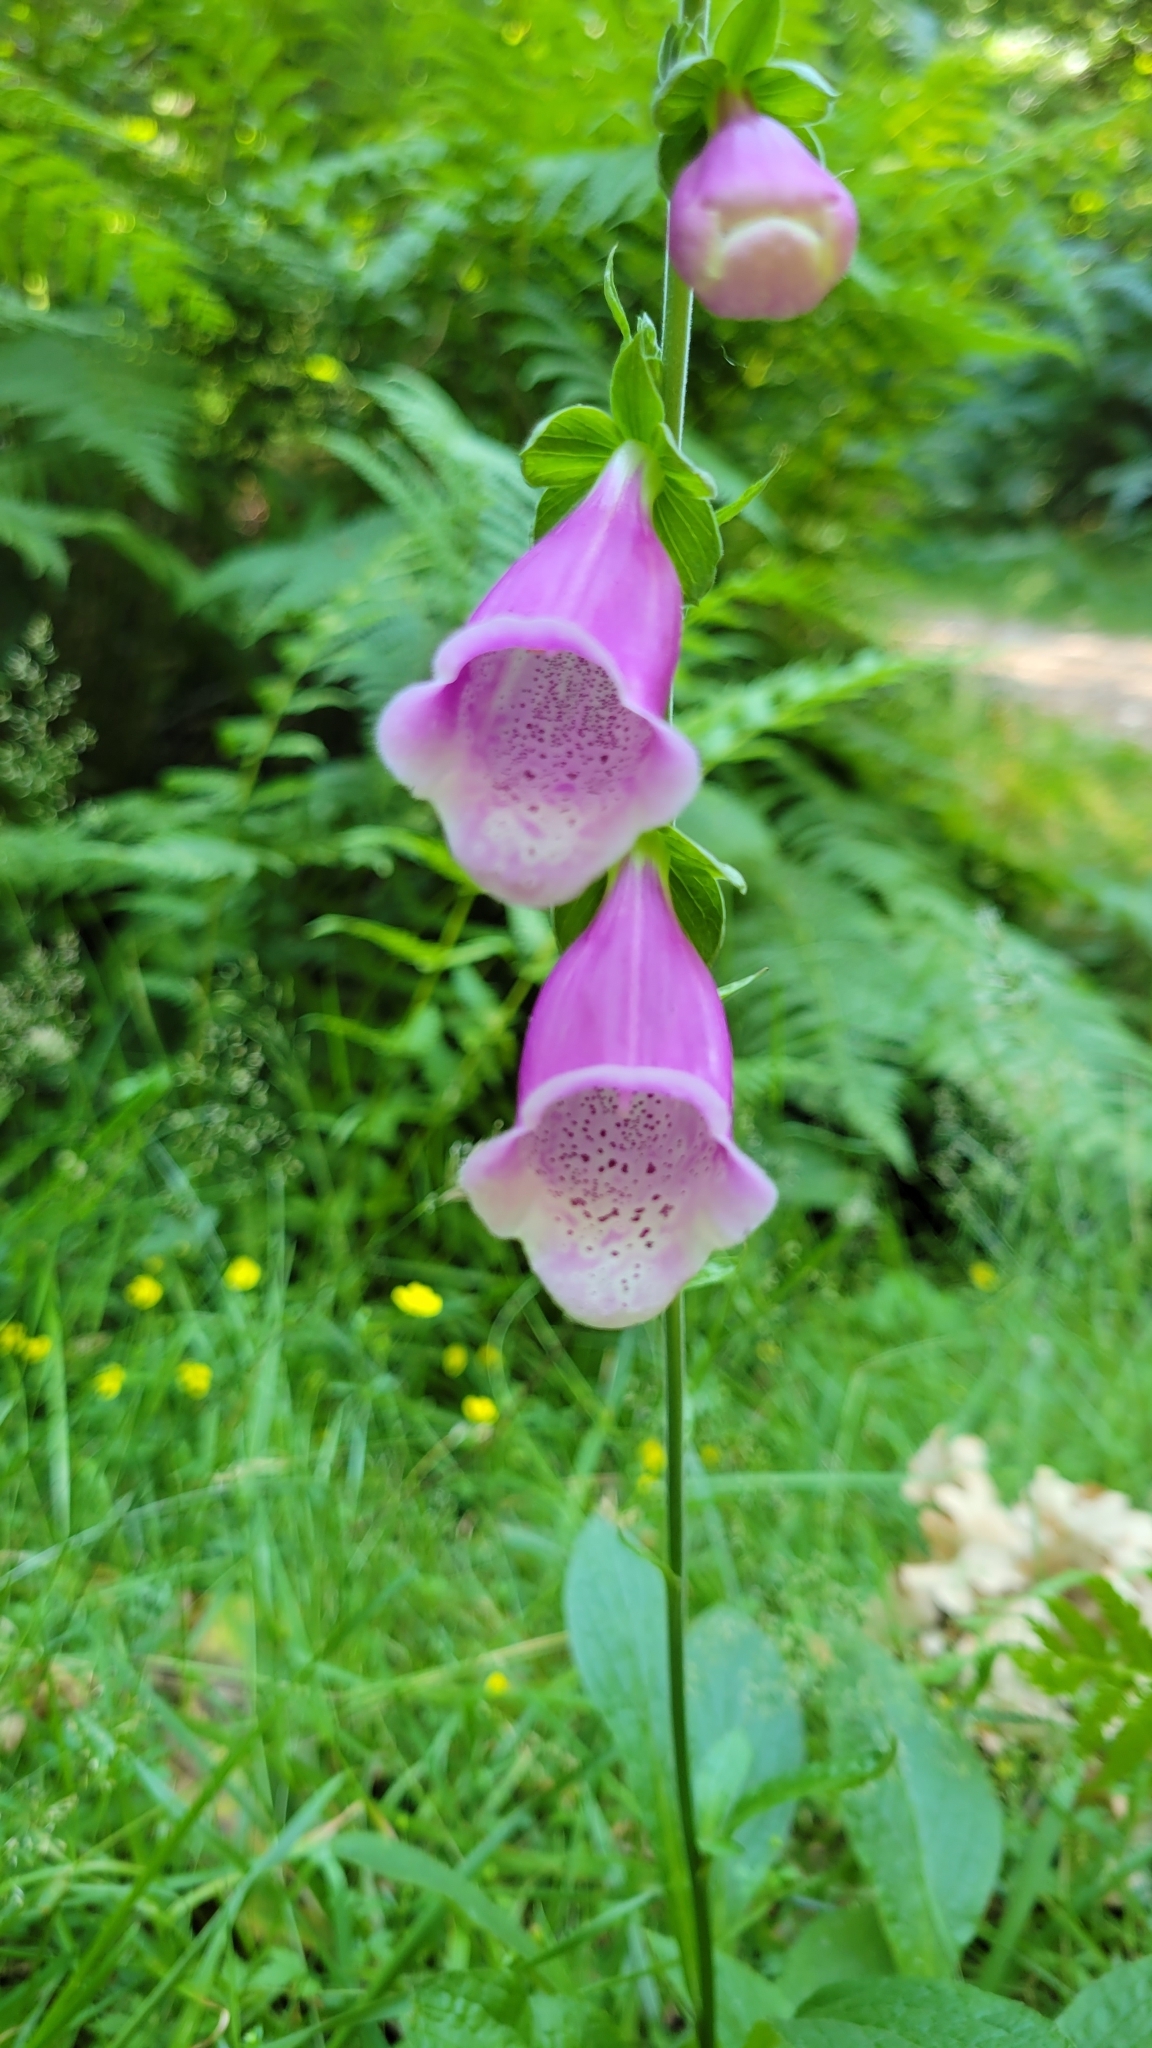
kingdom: Plantae
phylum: Tracheophyta
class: Magnoliopsida
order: Lamiales
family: Plantaginaceae
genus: Digitalis
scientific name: Digitalis purpurea
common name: Foxglove
